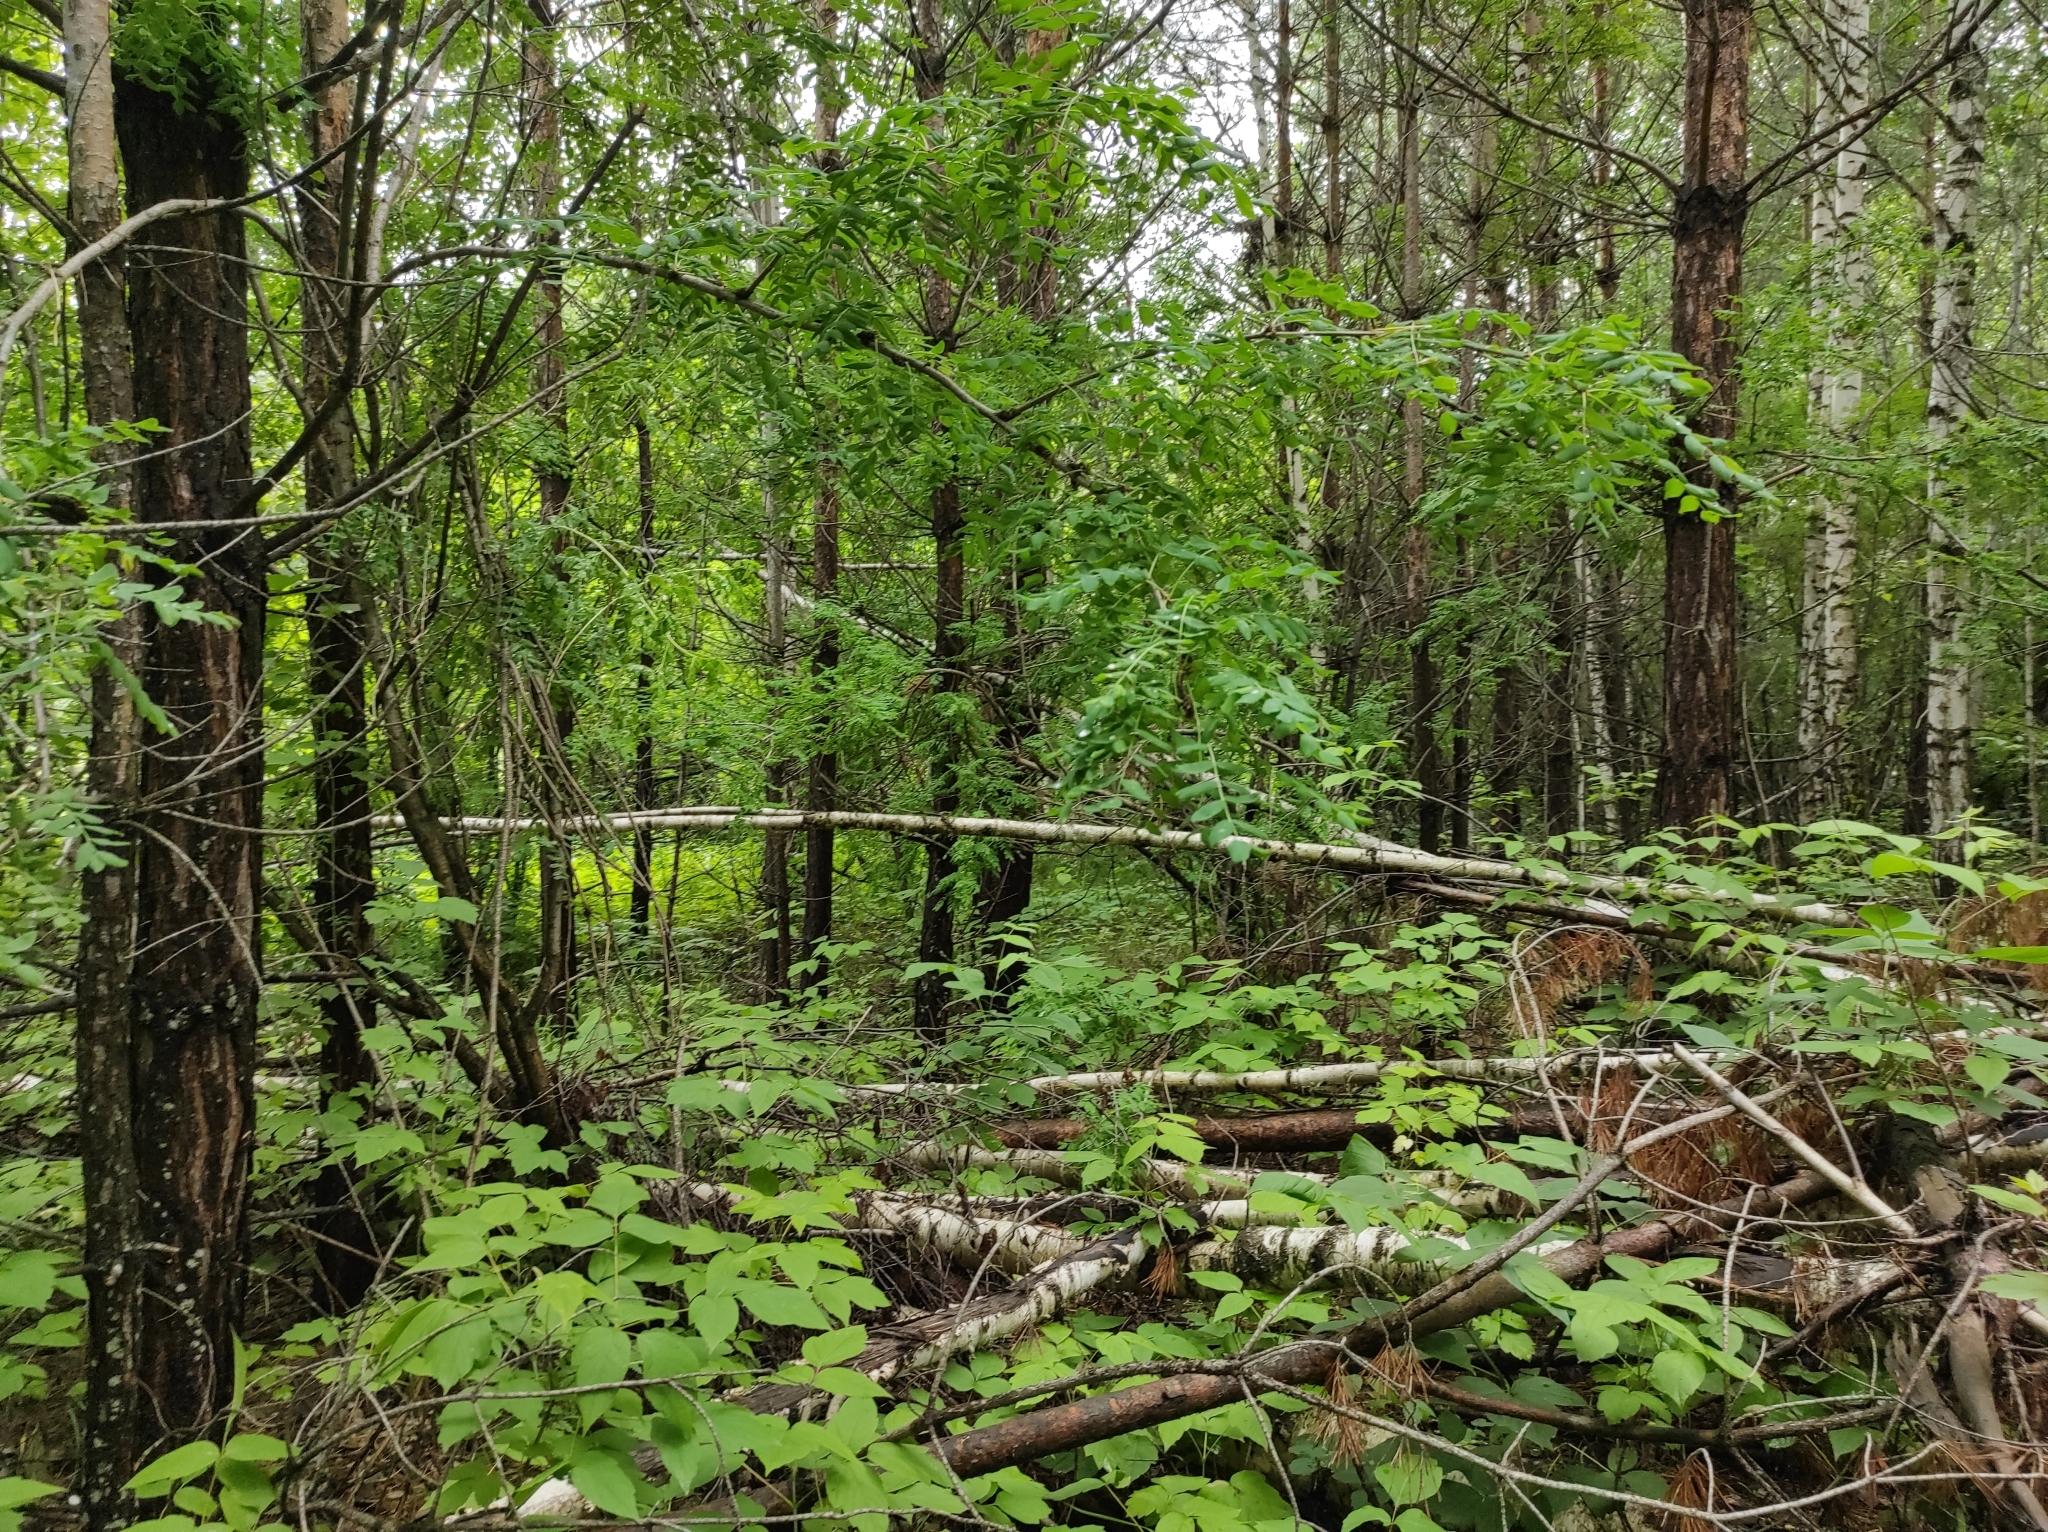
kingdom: Plantae
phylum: Tracheophyta
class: Pinopsida
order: Pinales
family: Pinaceae
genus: Pinus
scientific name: Pinus sylvestris
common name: Scots pine
